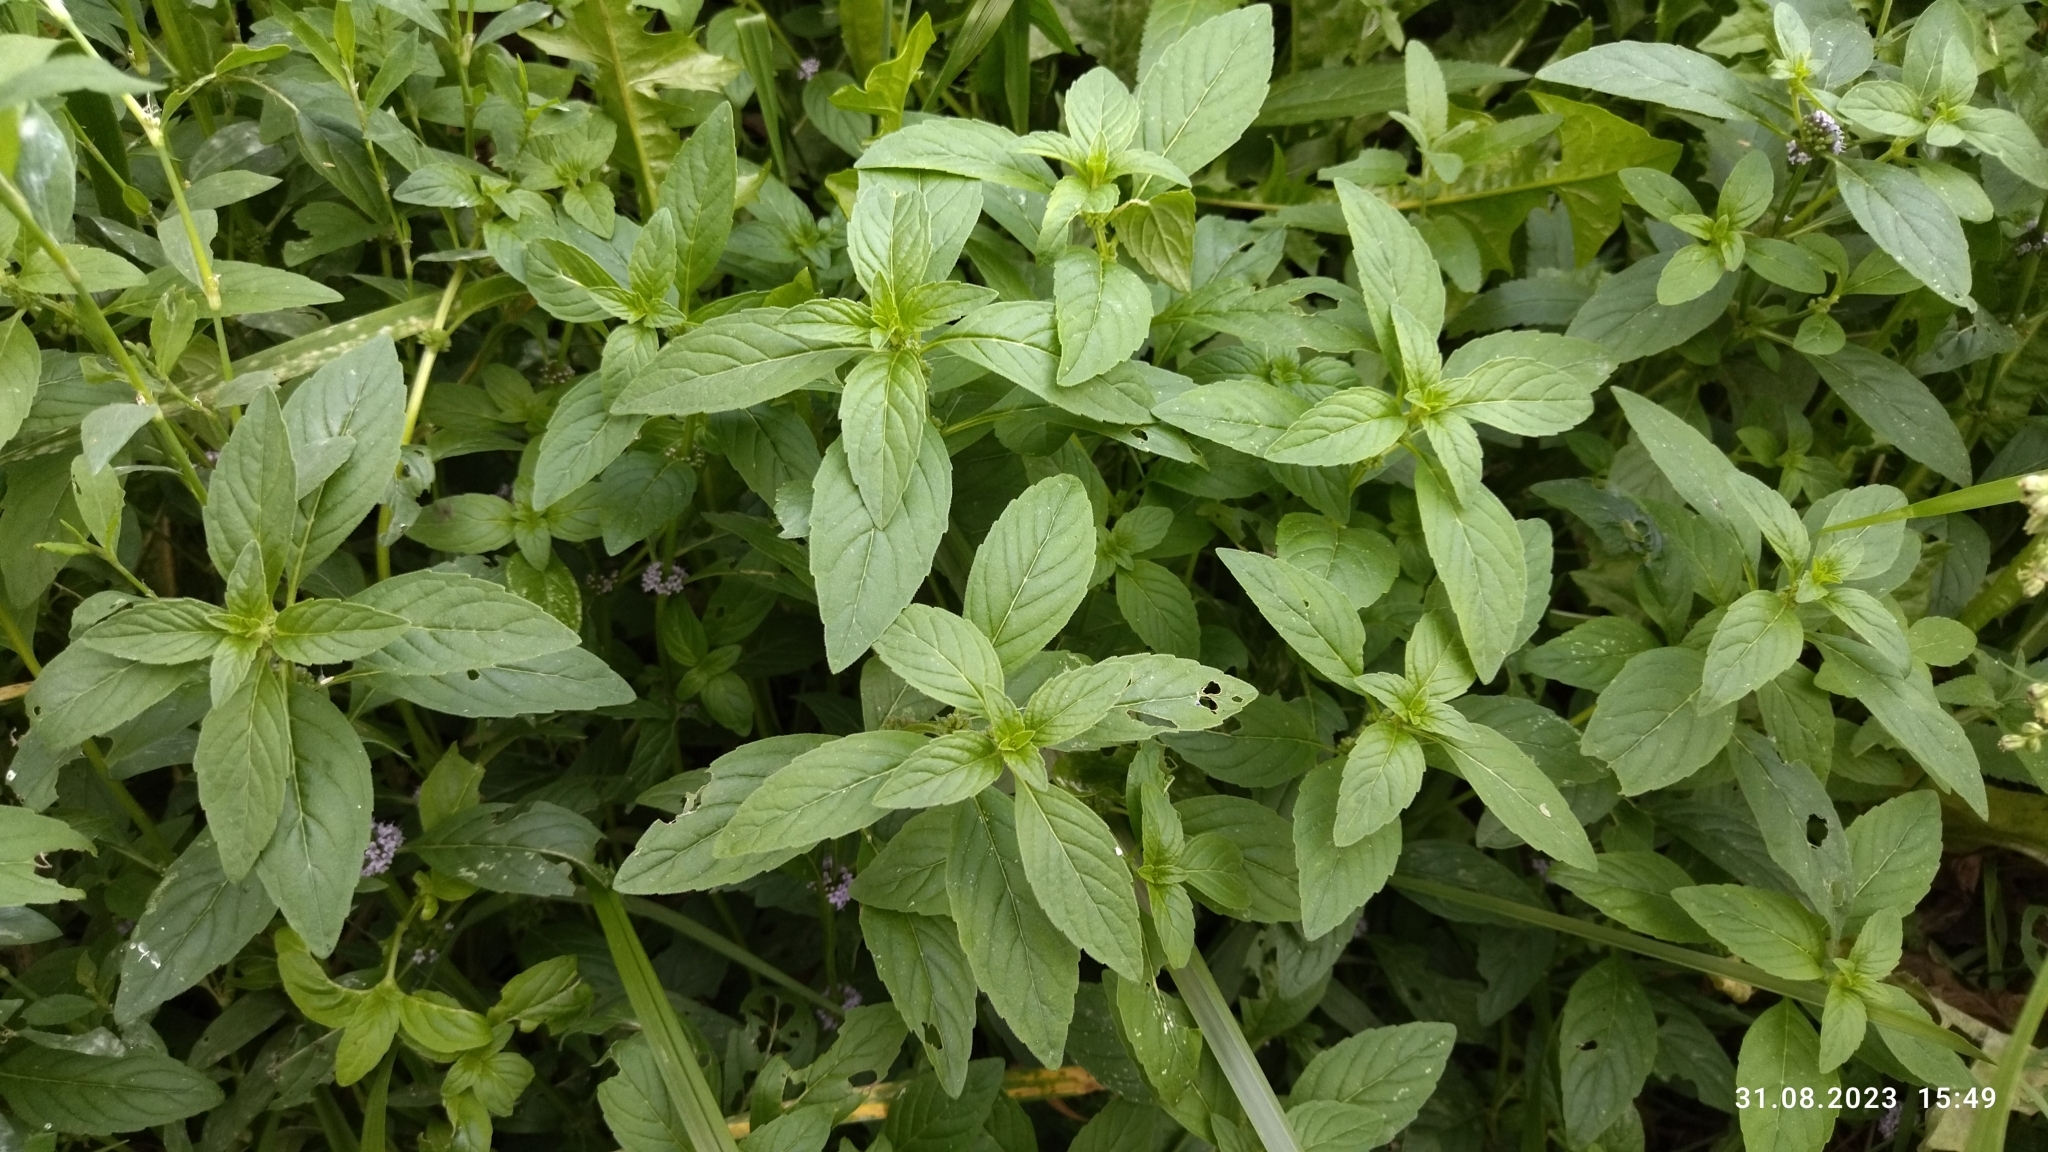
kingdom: Plantae
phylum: Tracheophyta
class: Magnoliopsida
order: Lamiales
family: Lamiaceae
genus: Mentha
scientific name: Mentha arvensis
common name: Corn mint
